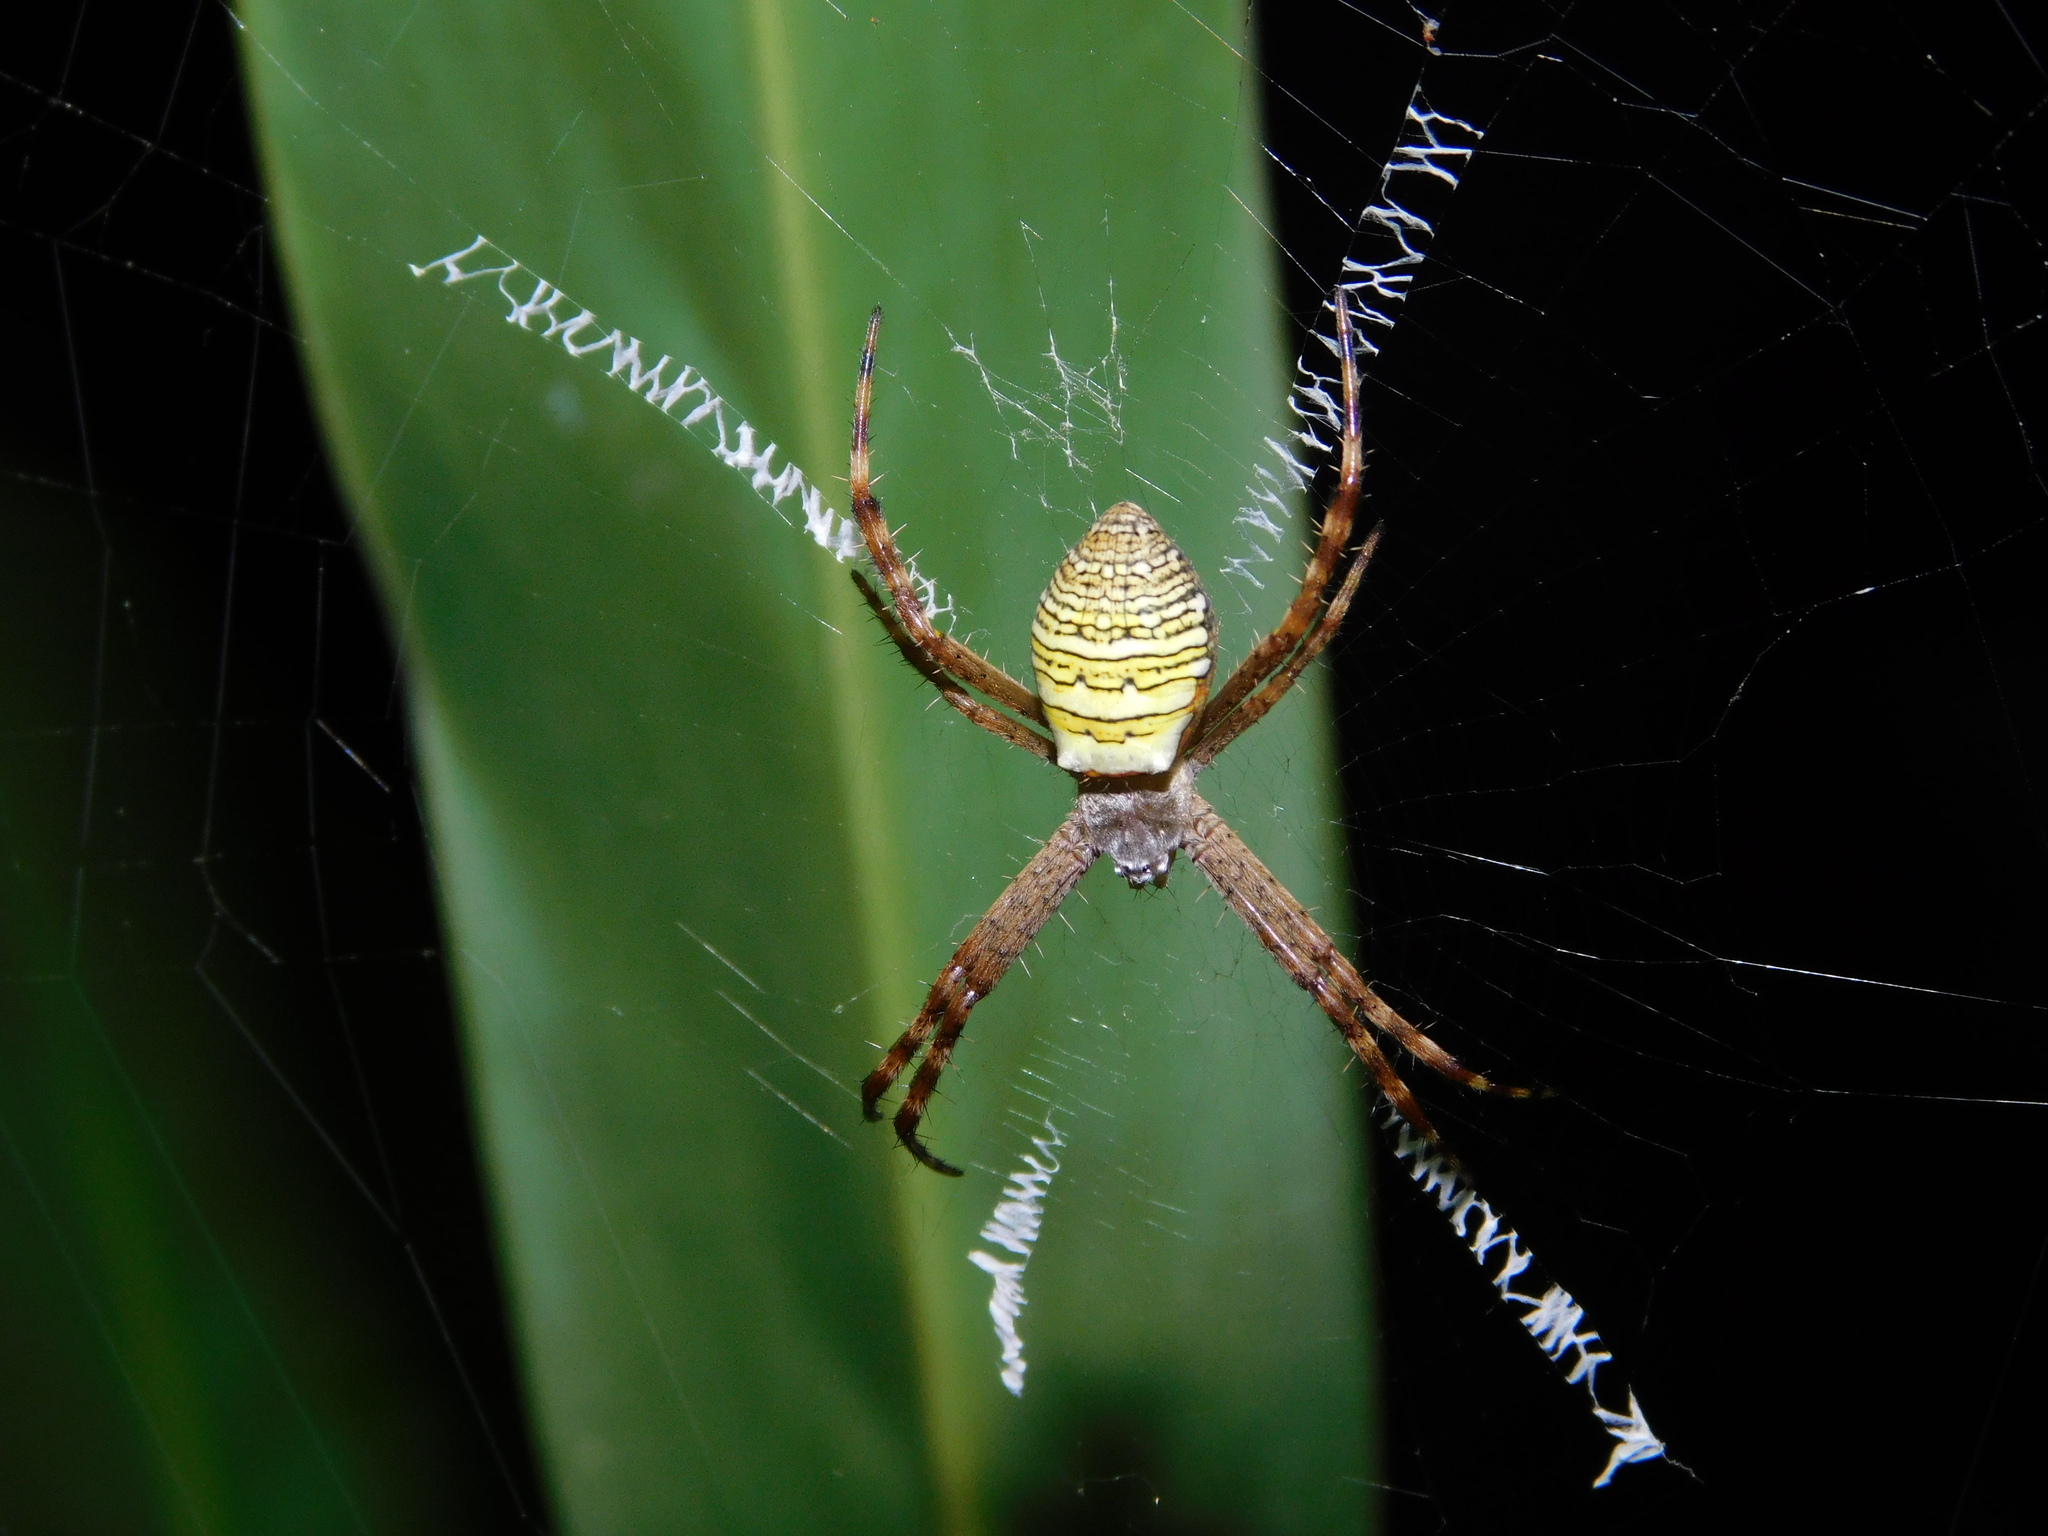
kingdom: Animalia
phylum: Arthropoda
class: Arachnida
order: Araneae
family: Araneidae
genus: Argiope
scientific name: Argiope aemula
